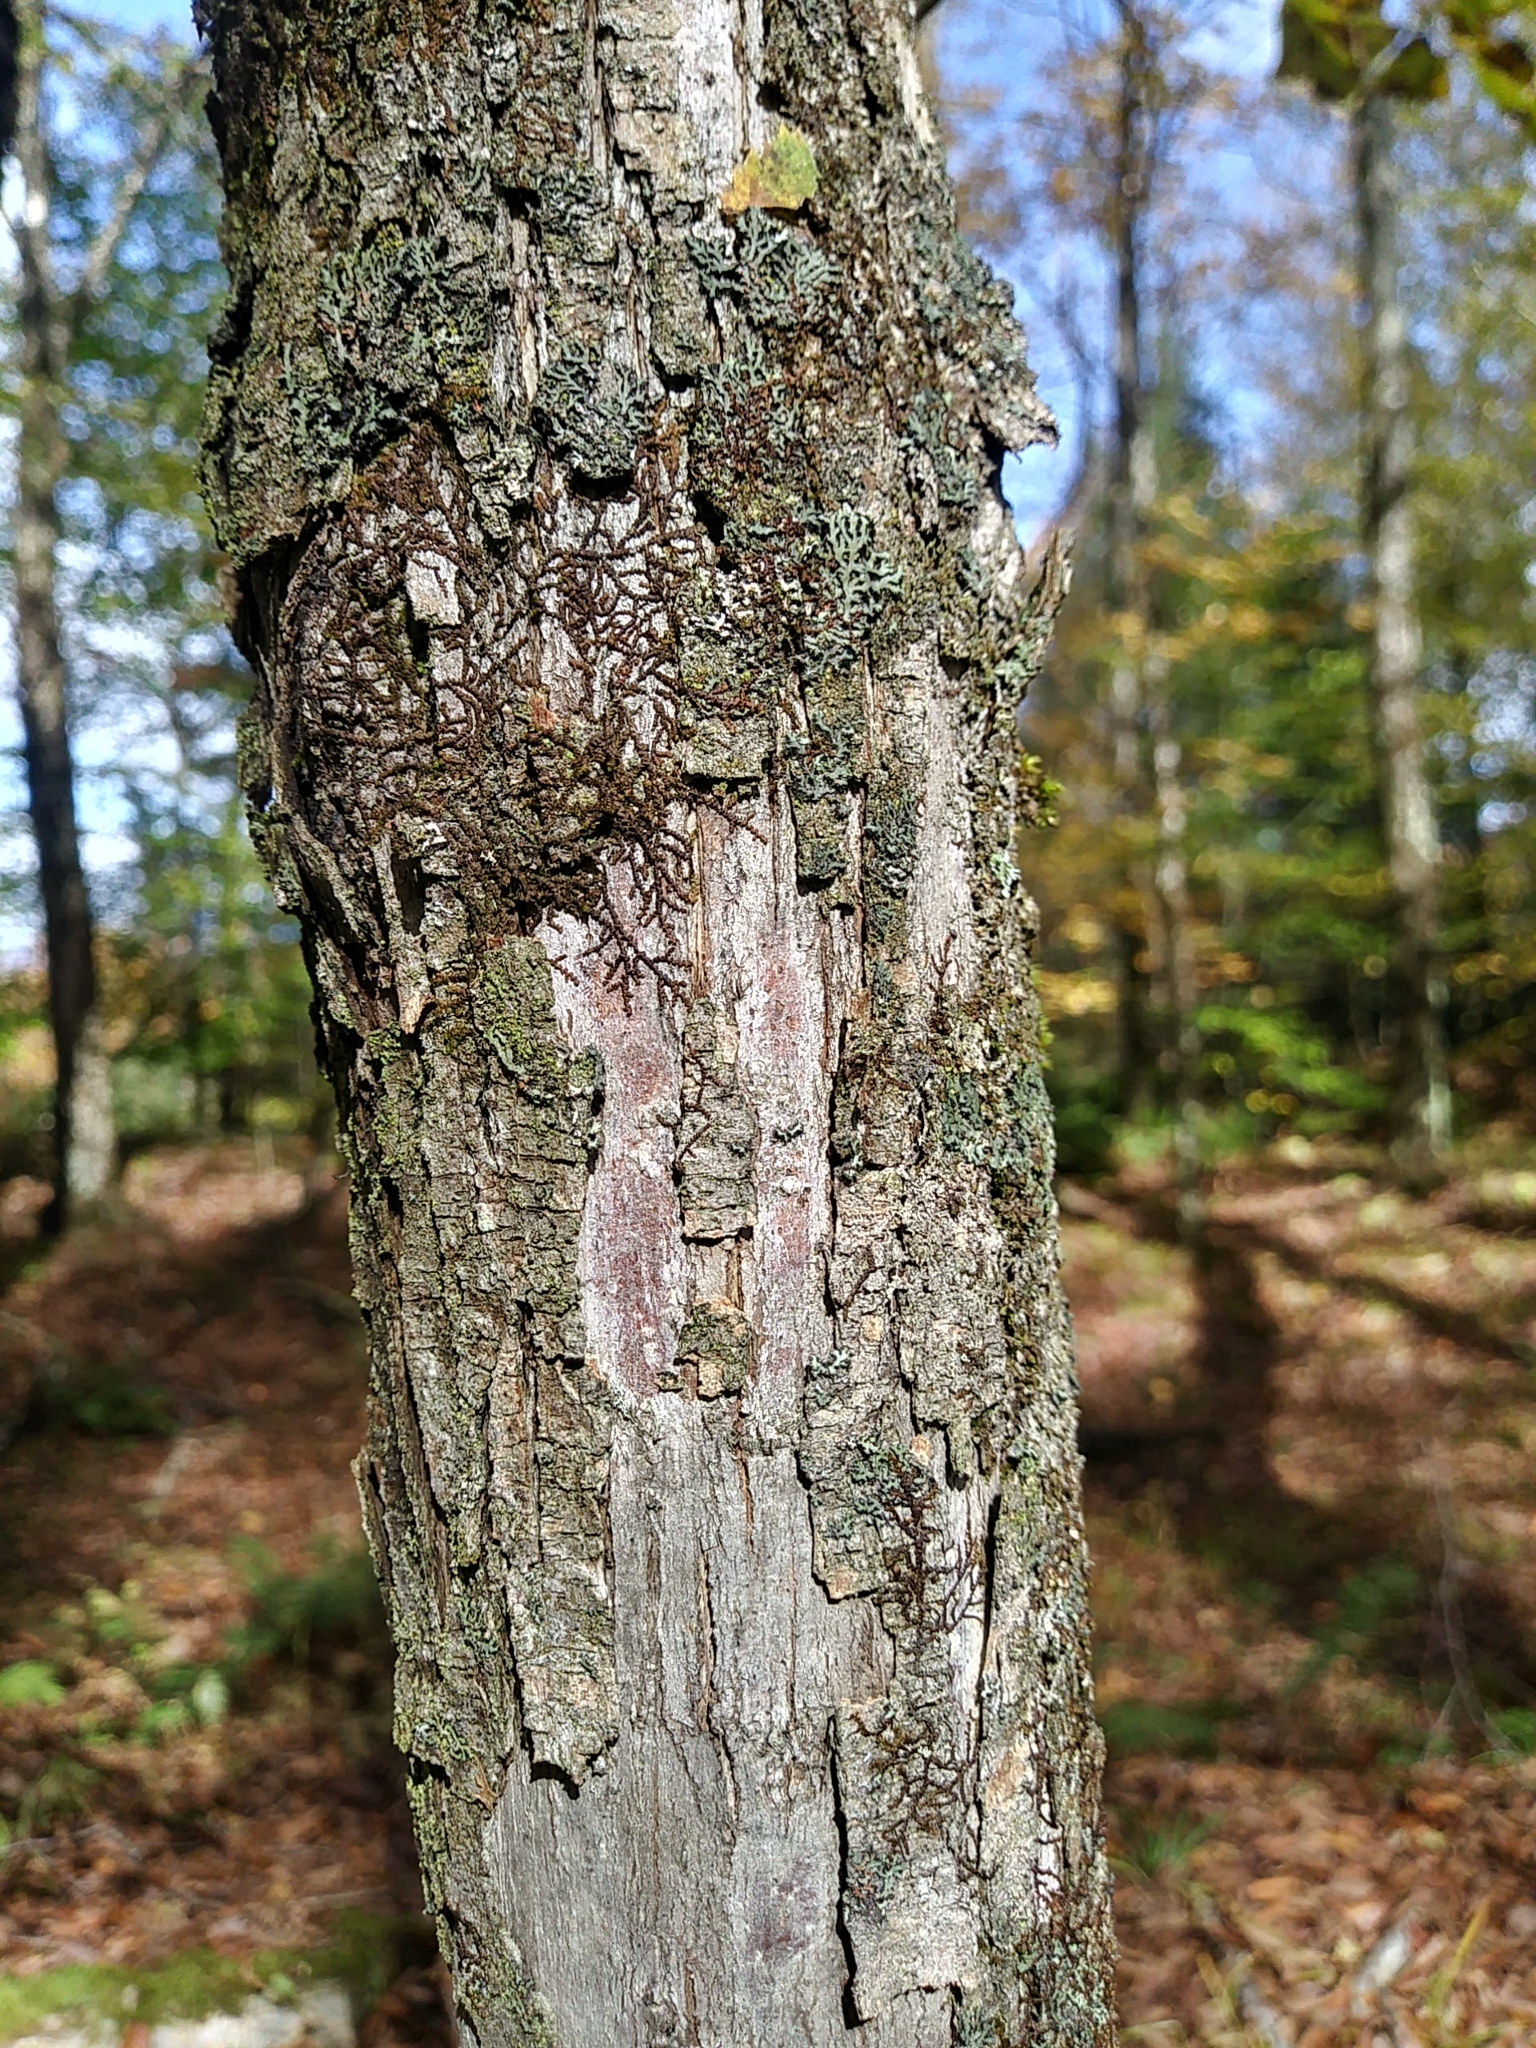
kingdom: Plantae
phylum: Tracheophyta
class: Magnoliopsida
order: Fagales
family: Betulaceae
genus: Ostrya
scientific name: Ostrya virginiana
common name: Ironwood
